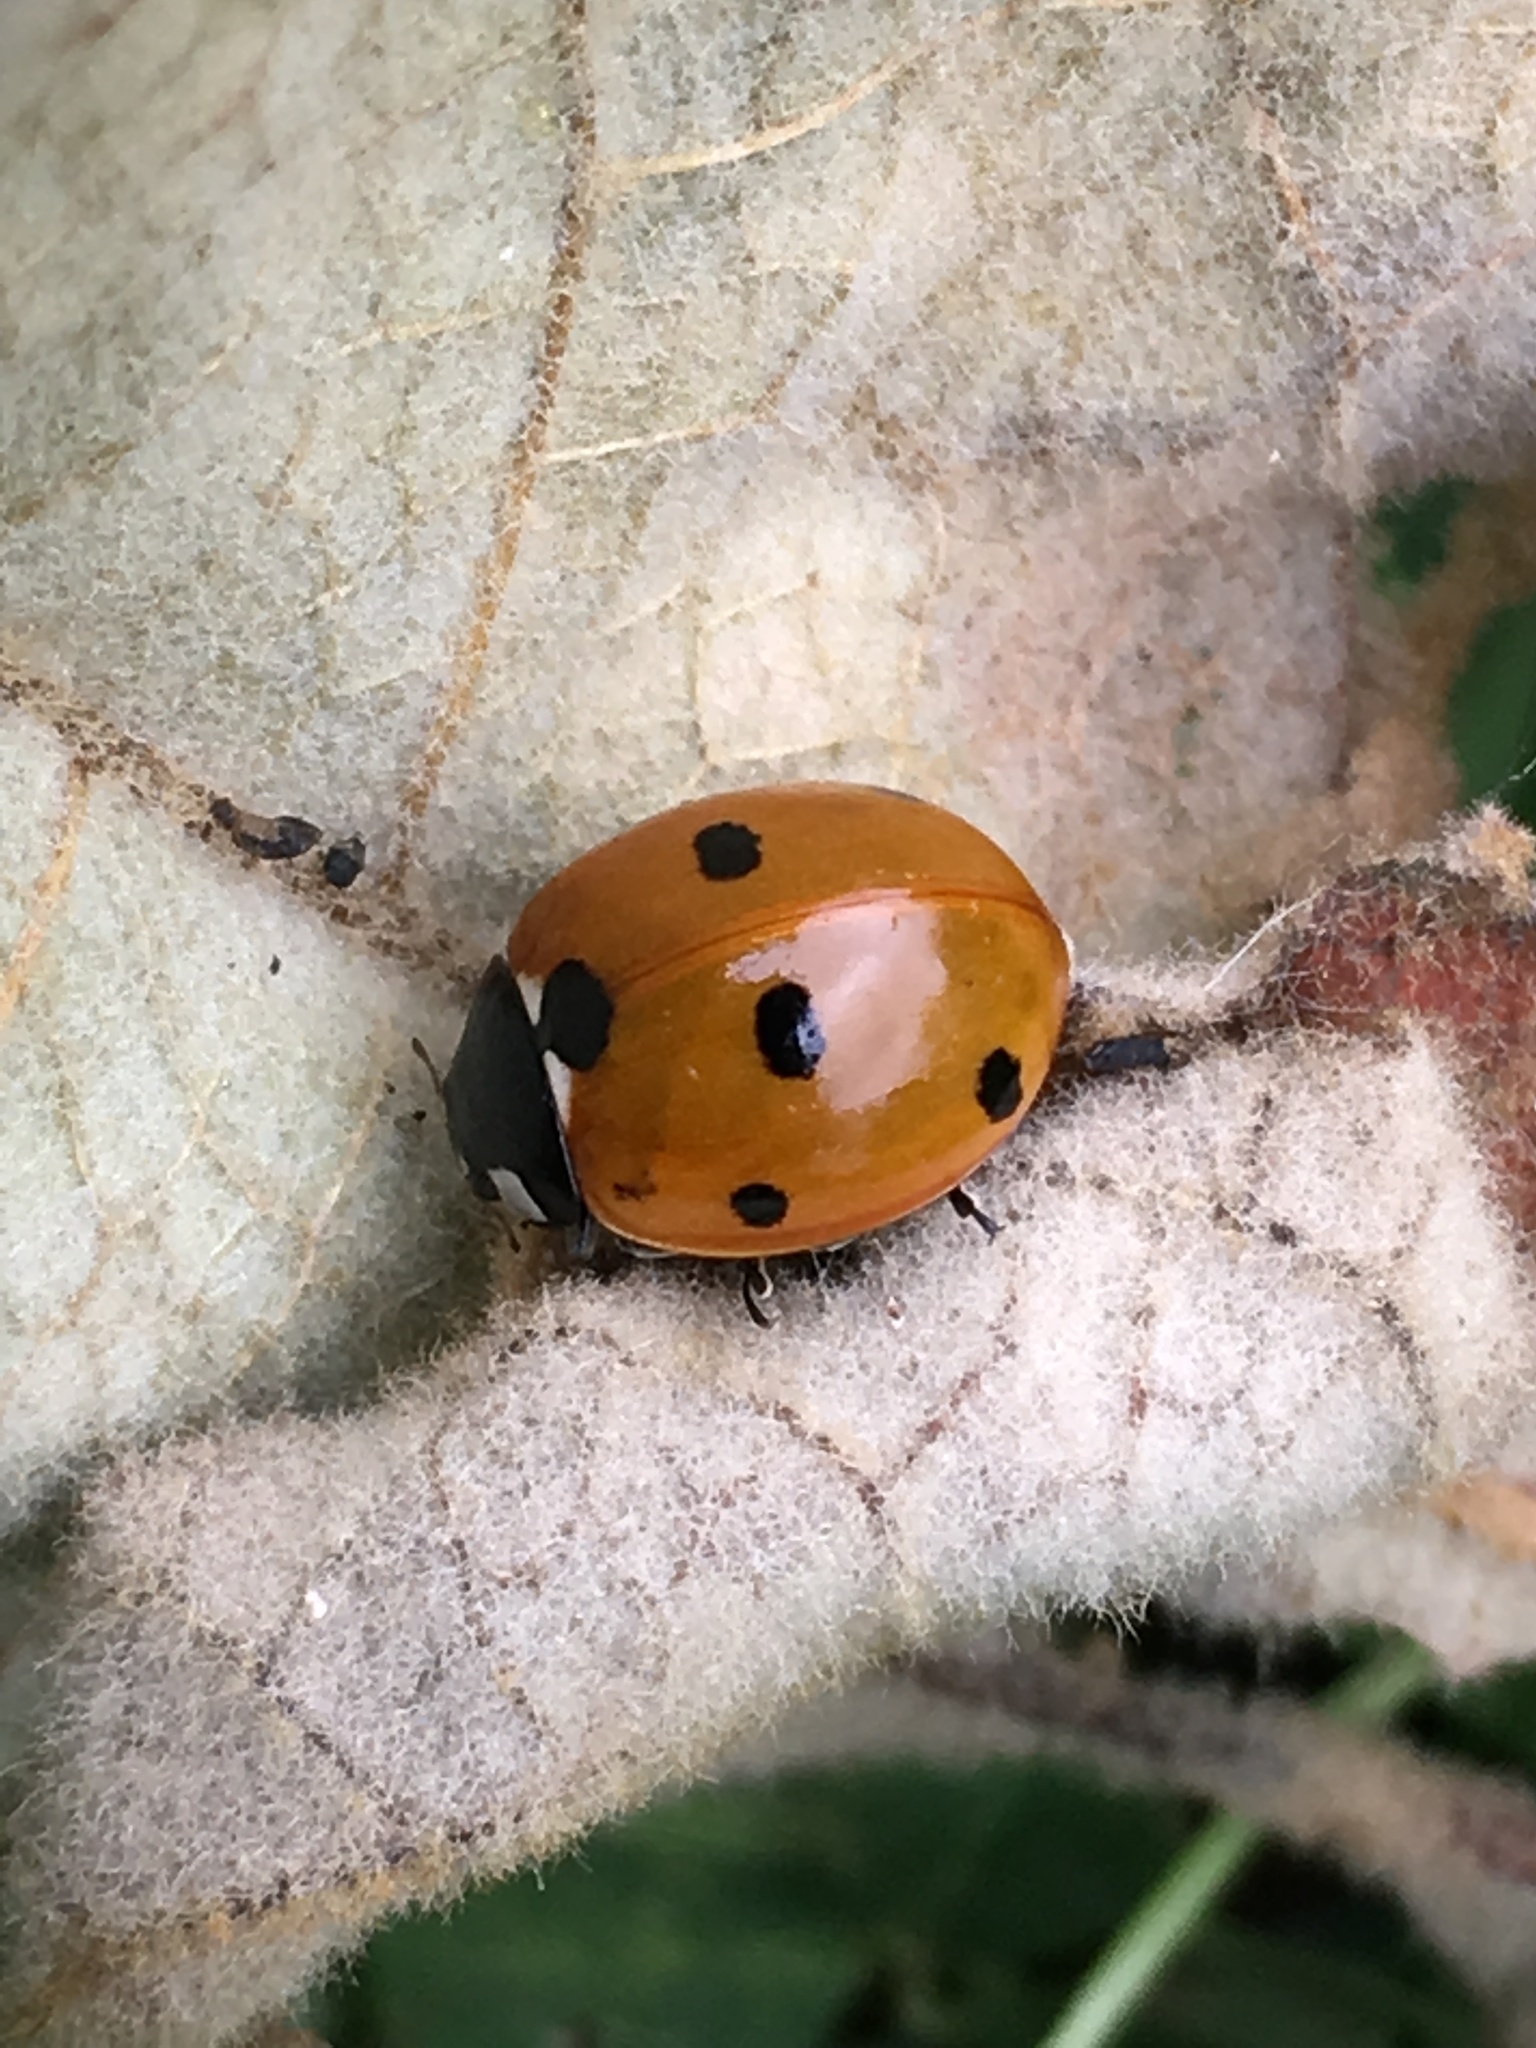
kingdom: Animalia
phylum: Arthropoda
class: Insecta
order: Coleoptera
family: Coccinellidae
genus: Coccinella
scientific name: Coccinella septempunctata
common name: Sevenspotted lady beetle
